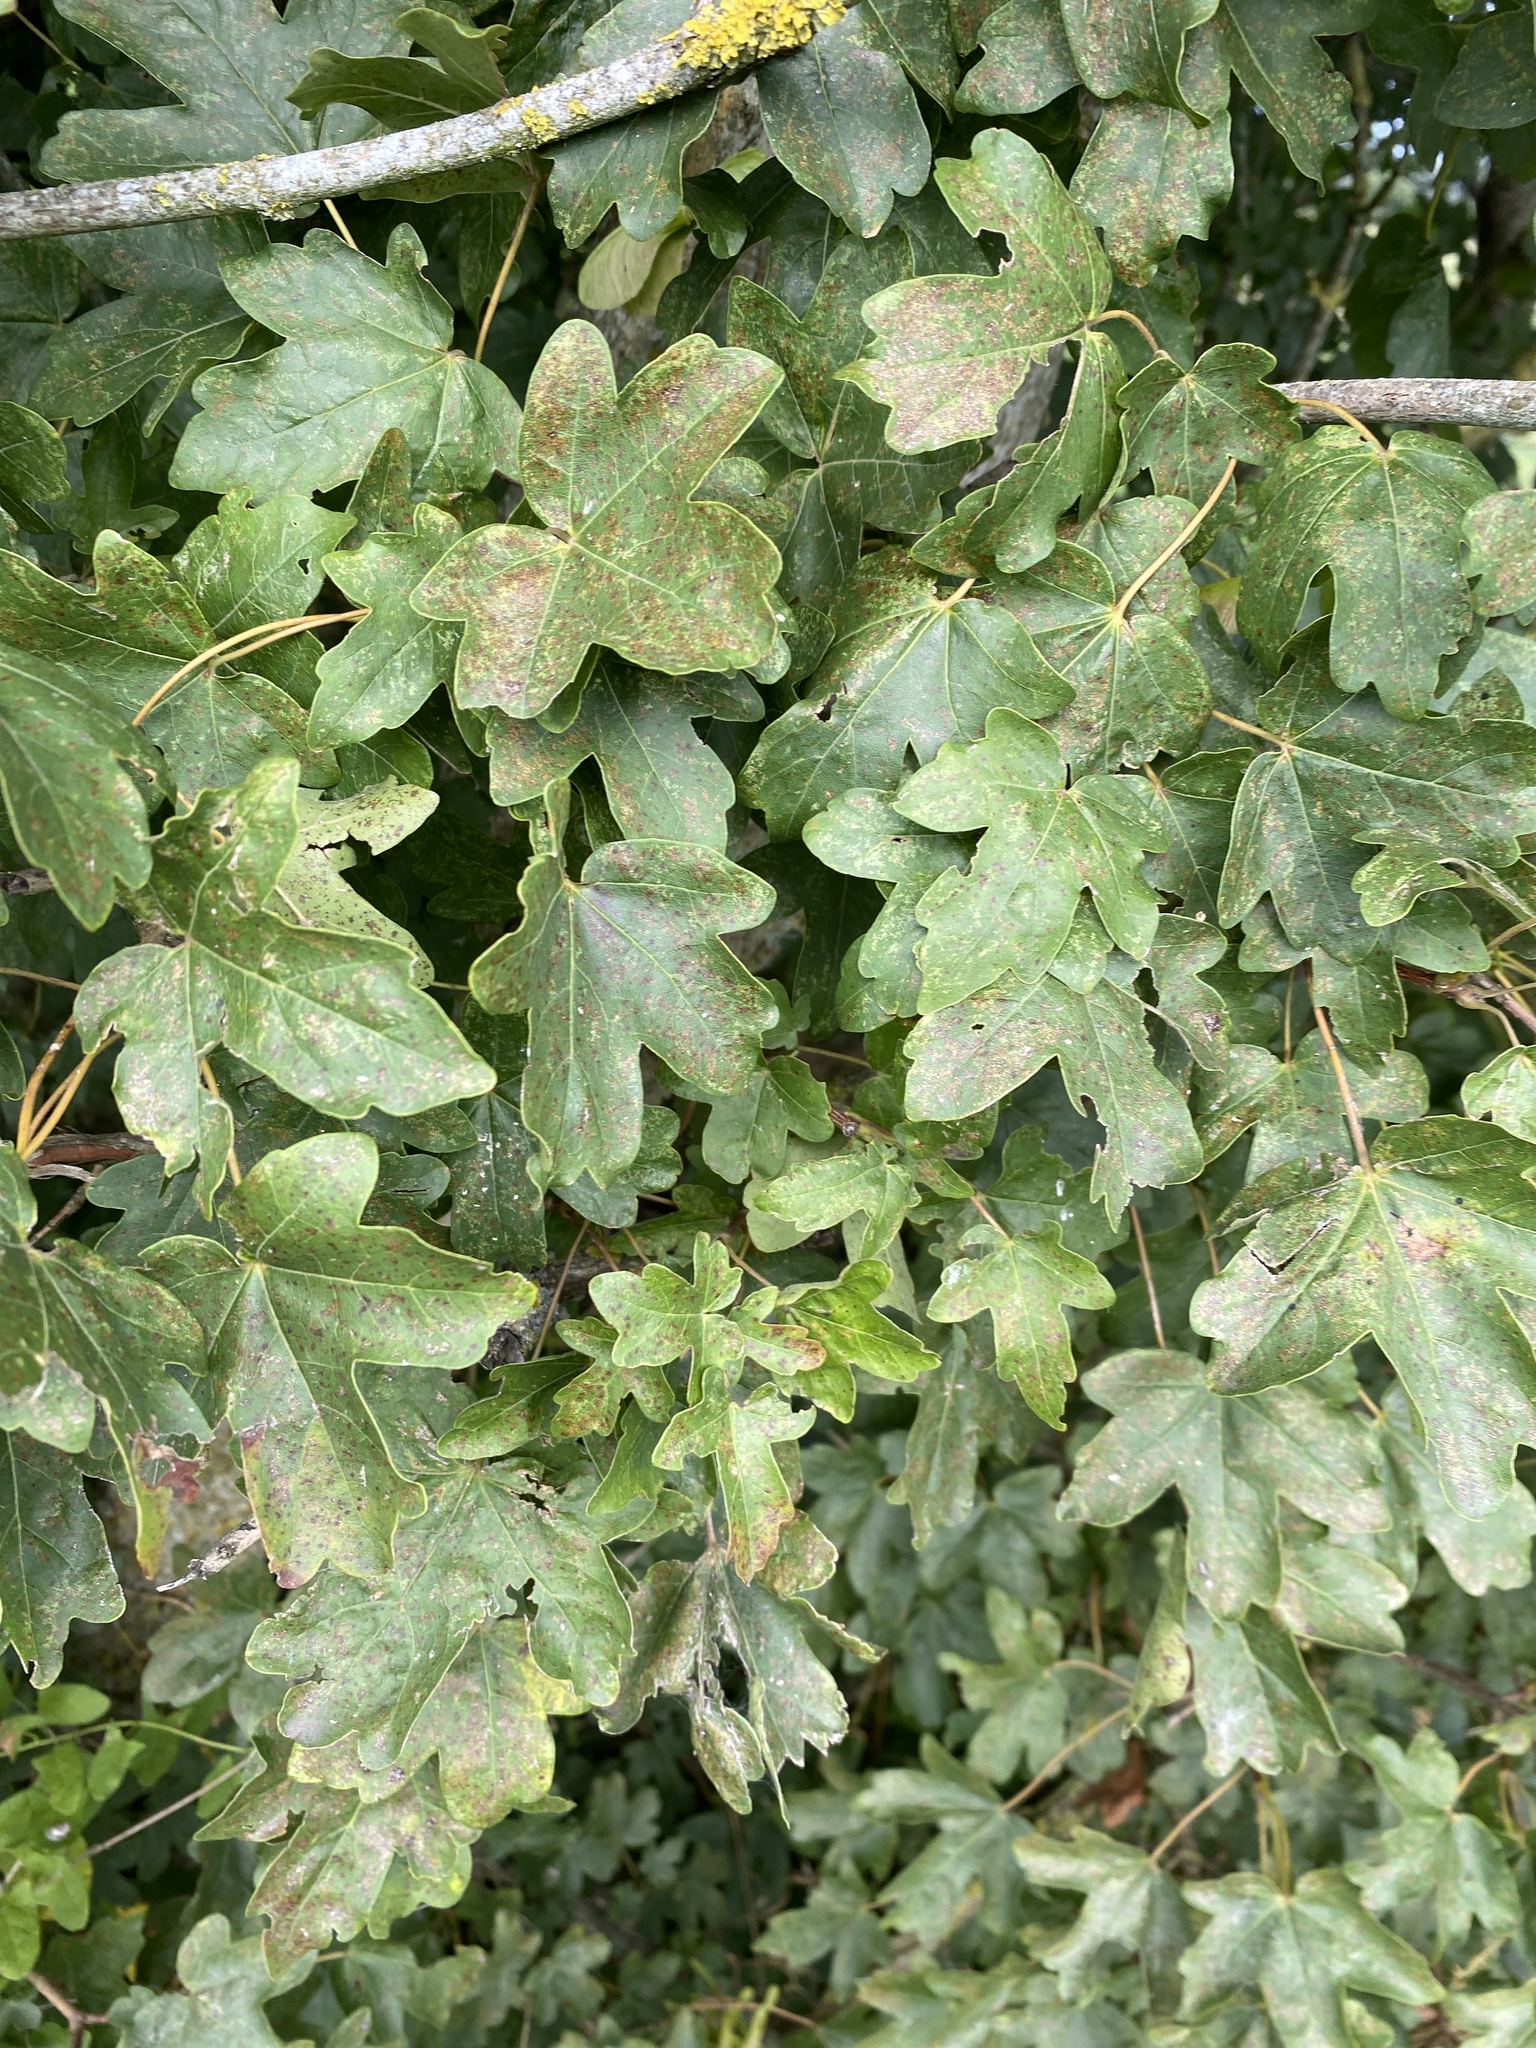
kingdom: Plantae
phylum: Tracheophyta
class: Magnoliopsida
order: Sapindales
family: Sapindaceae
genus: Acer
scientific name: Acer campestre
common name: Field maple
